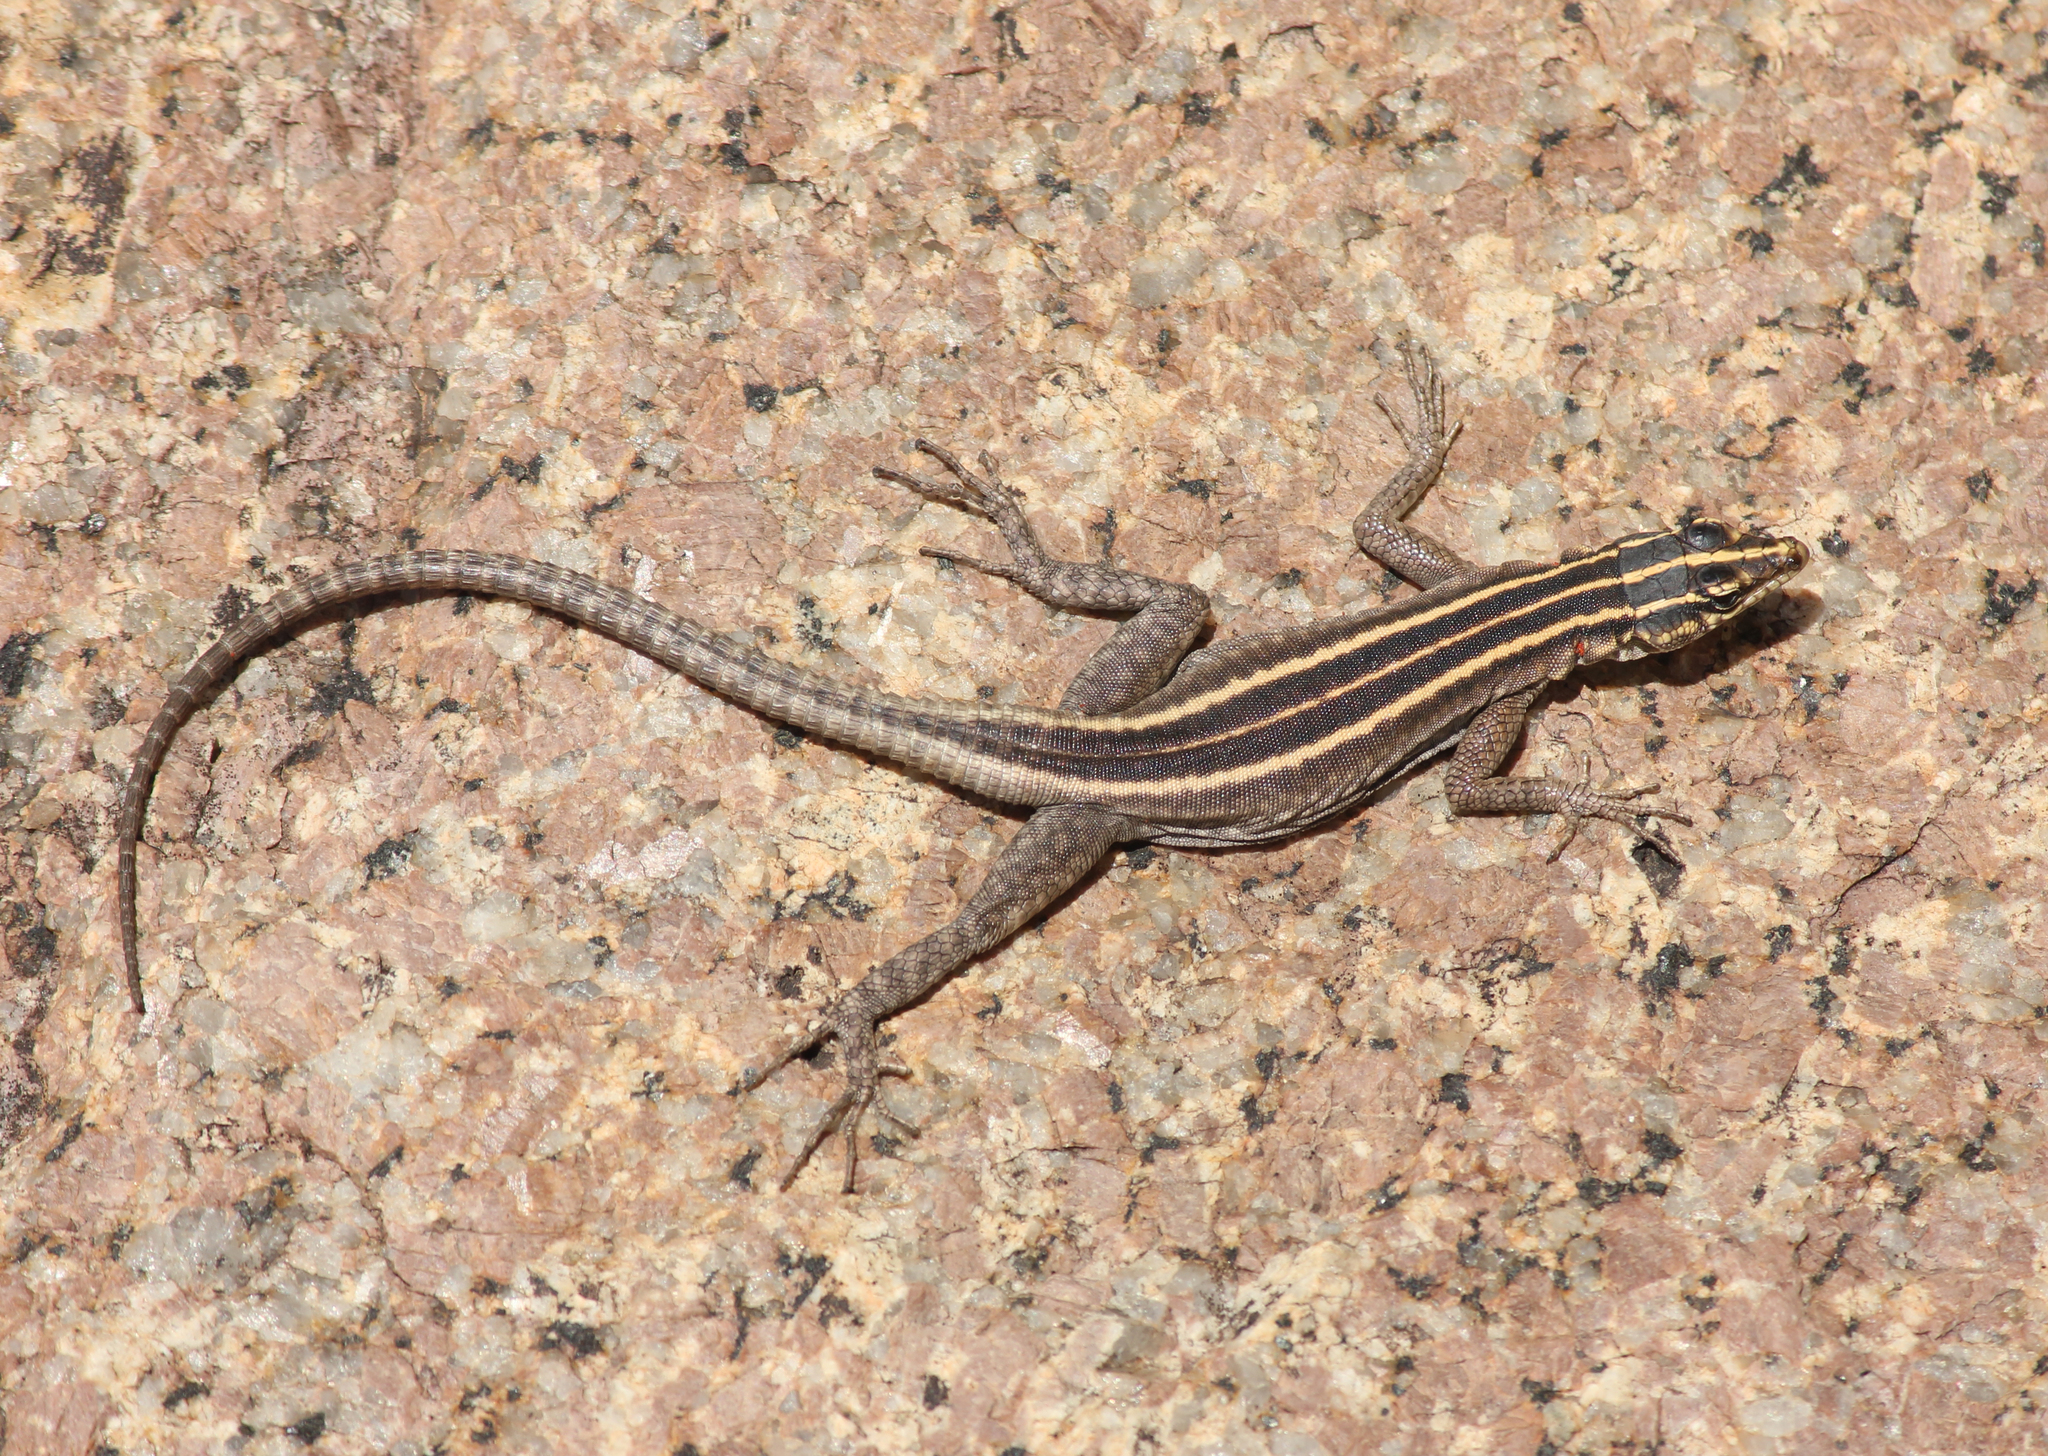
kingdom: Animalia
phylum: Chordata
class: Squamata
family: Cordylidae
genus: Platysaurus
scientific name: Platysaurus attenboroughi
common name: Attenborough’s flat lizard
